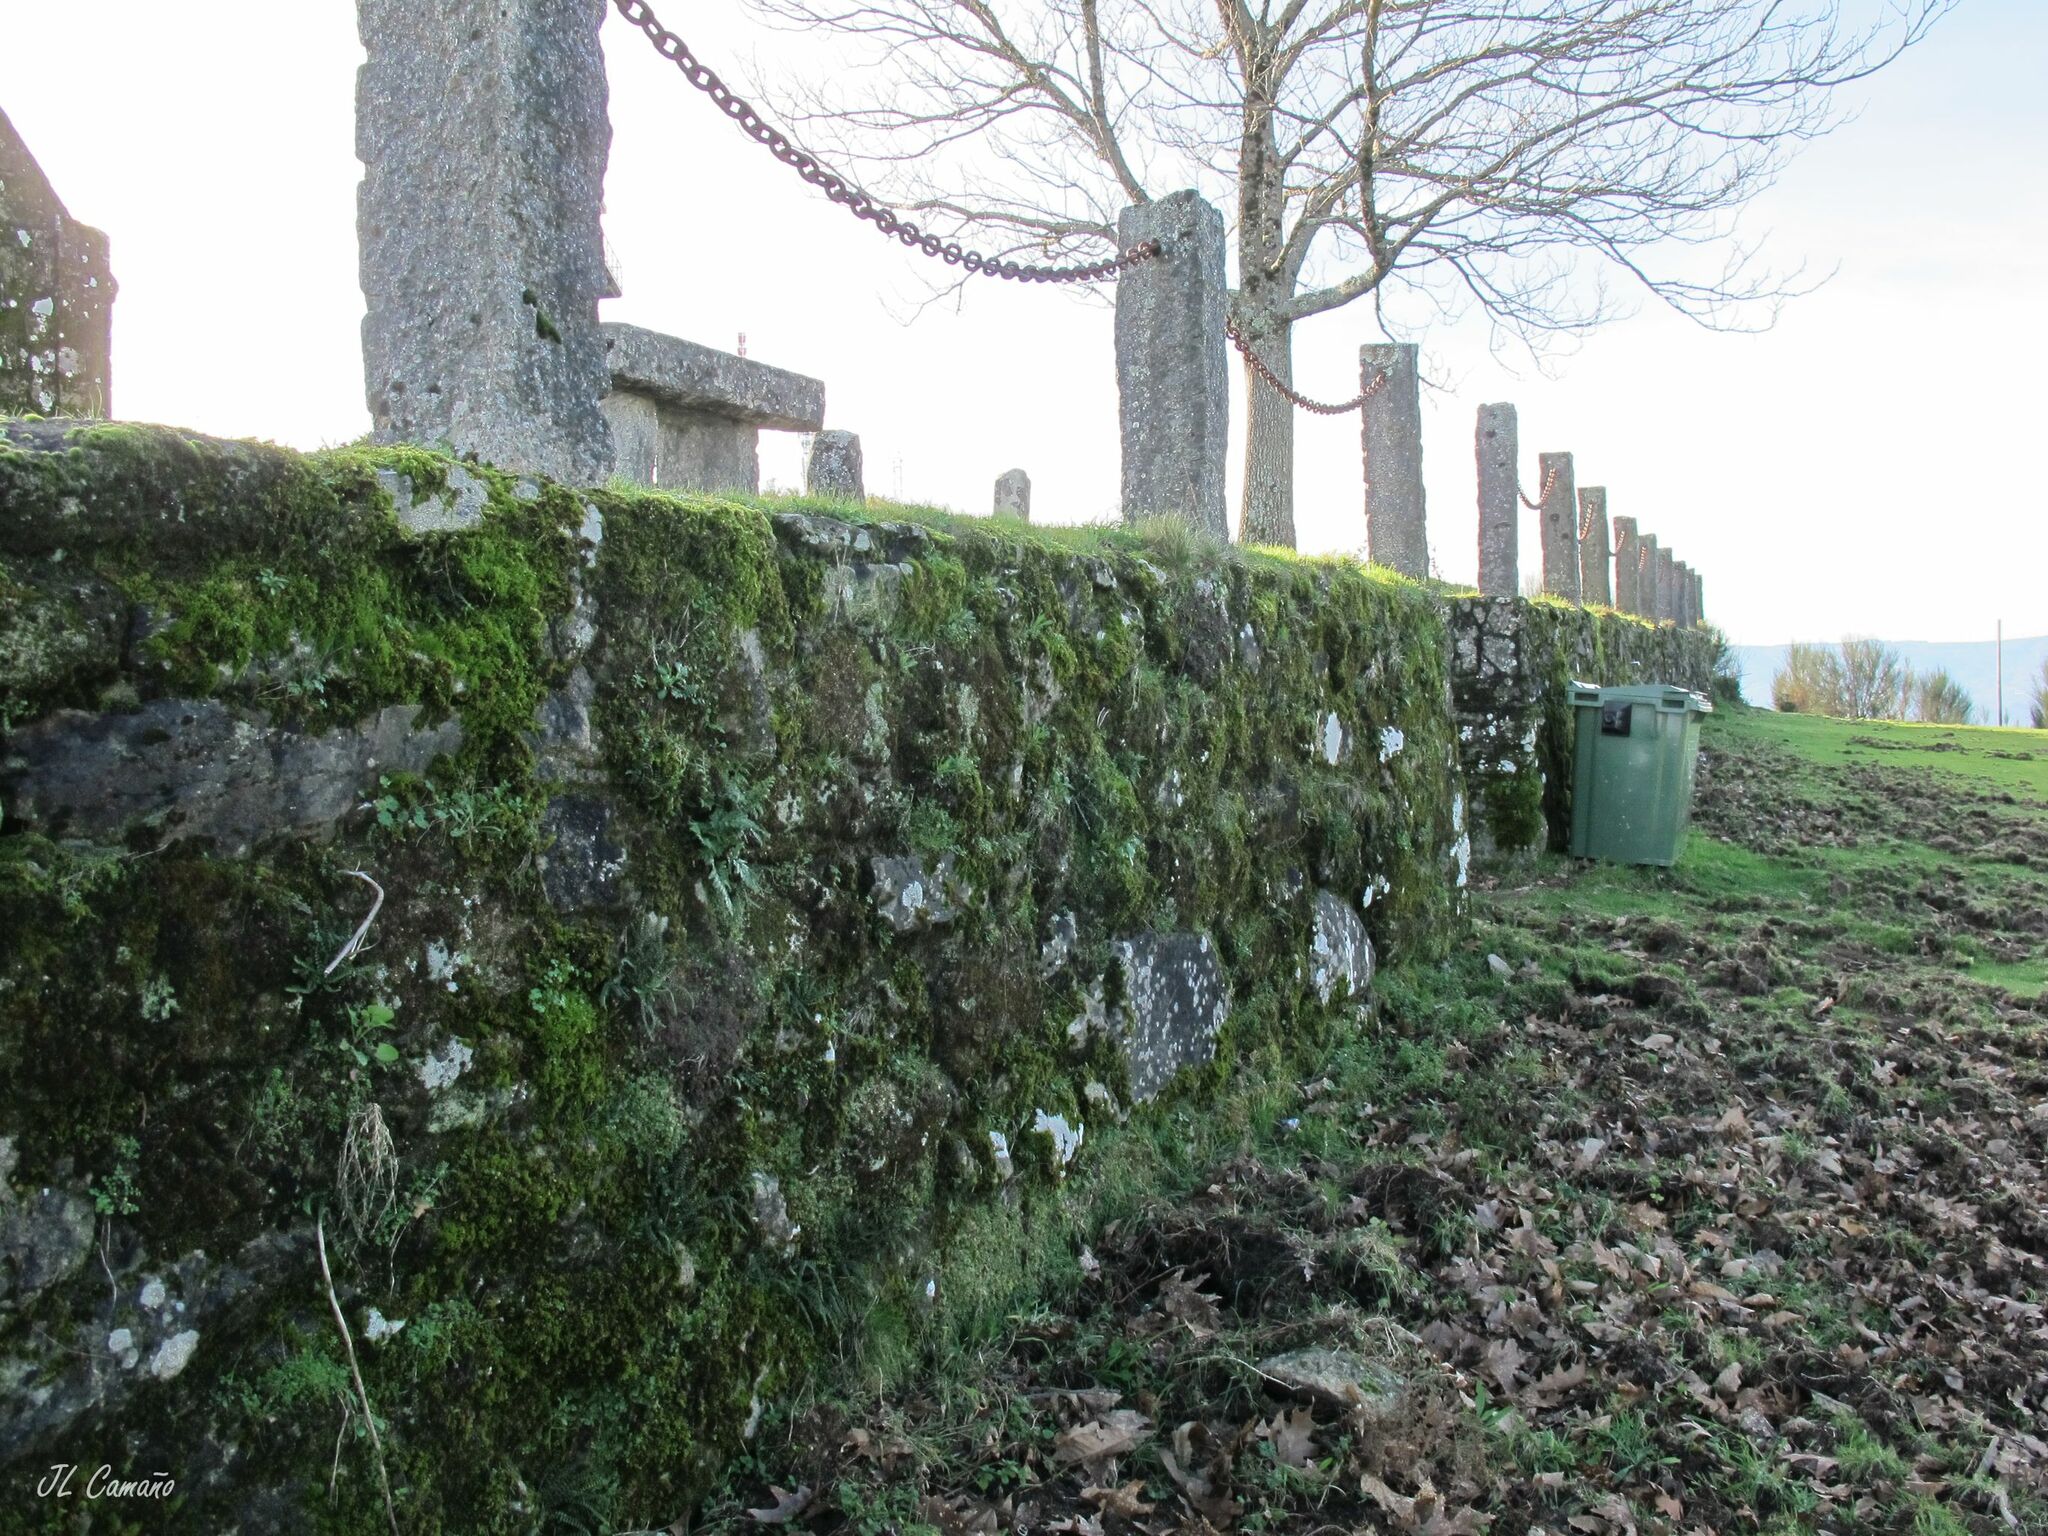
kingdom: Plantae
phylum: Bryophyta
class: Bryopsida
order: Grimmiales
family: Grimmiaceae
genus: Grimmia
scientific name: Grimmia pulvinata
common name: Grey-cushioned grimmia
